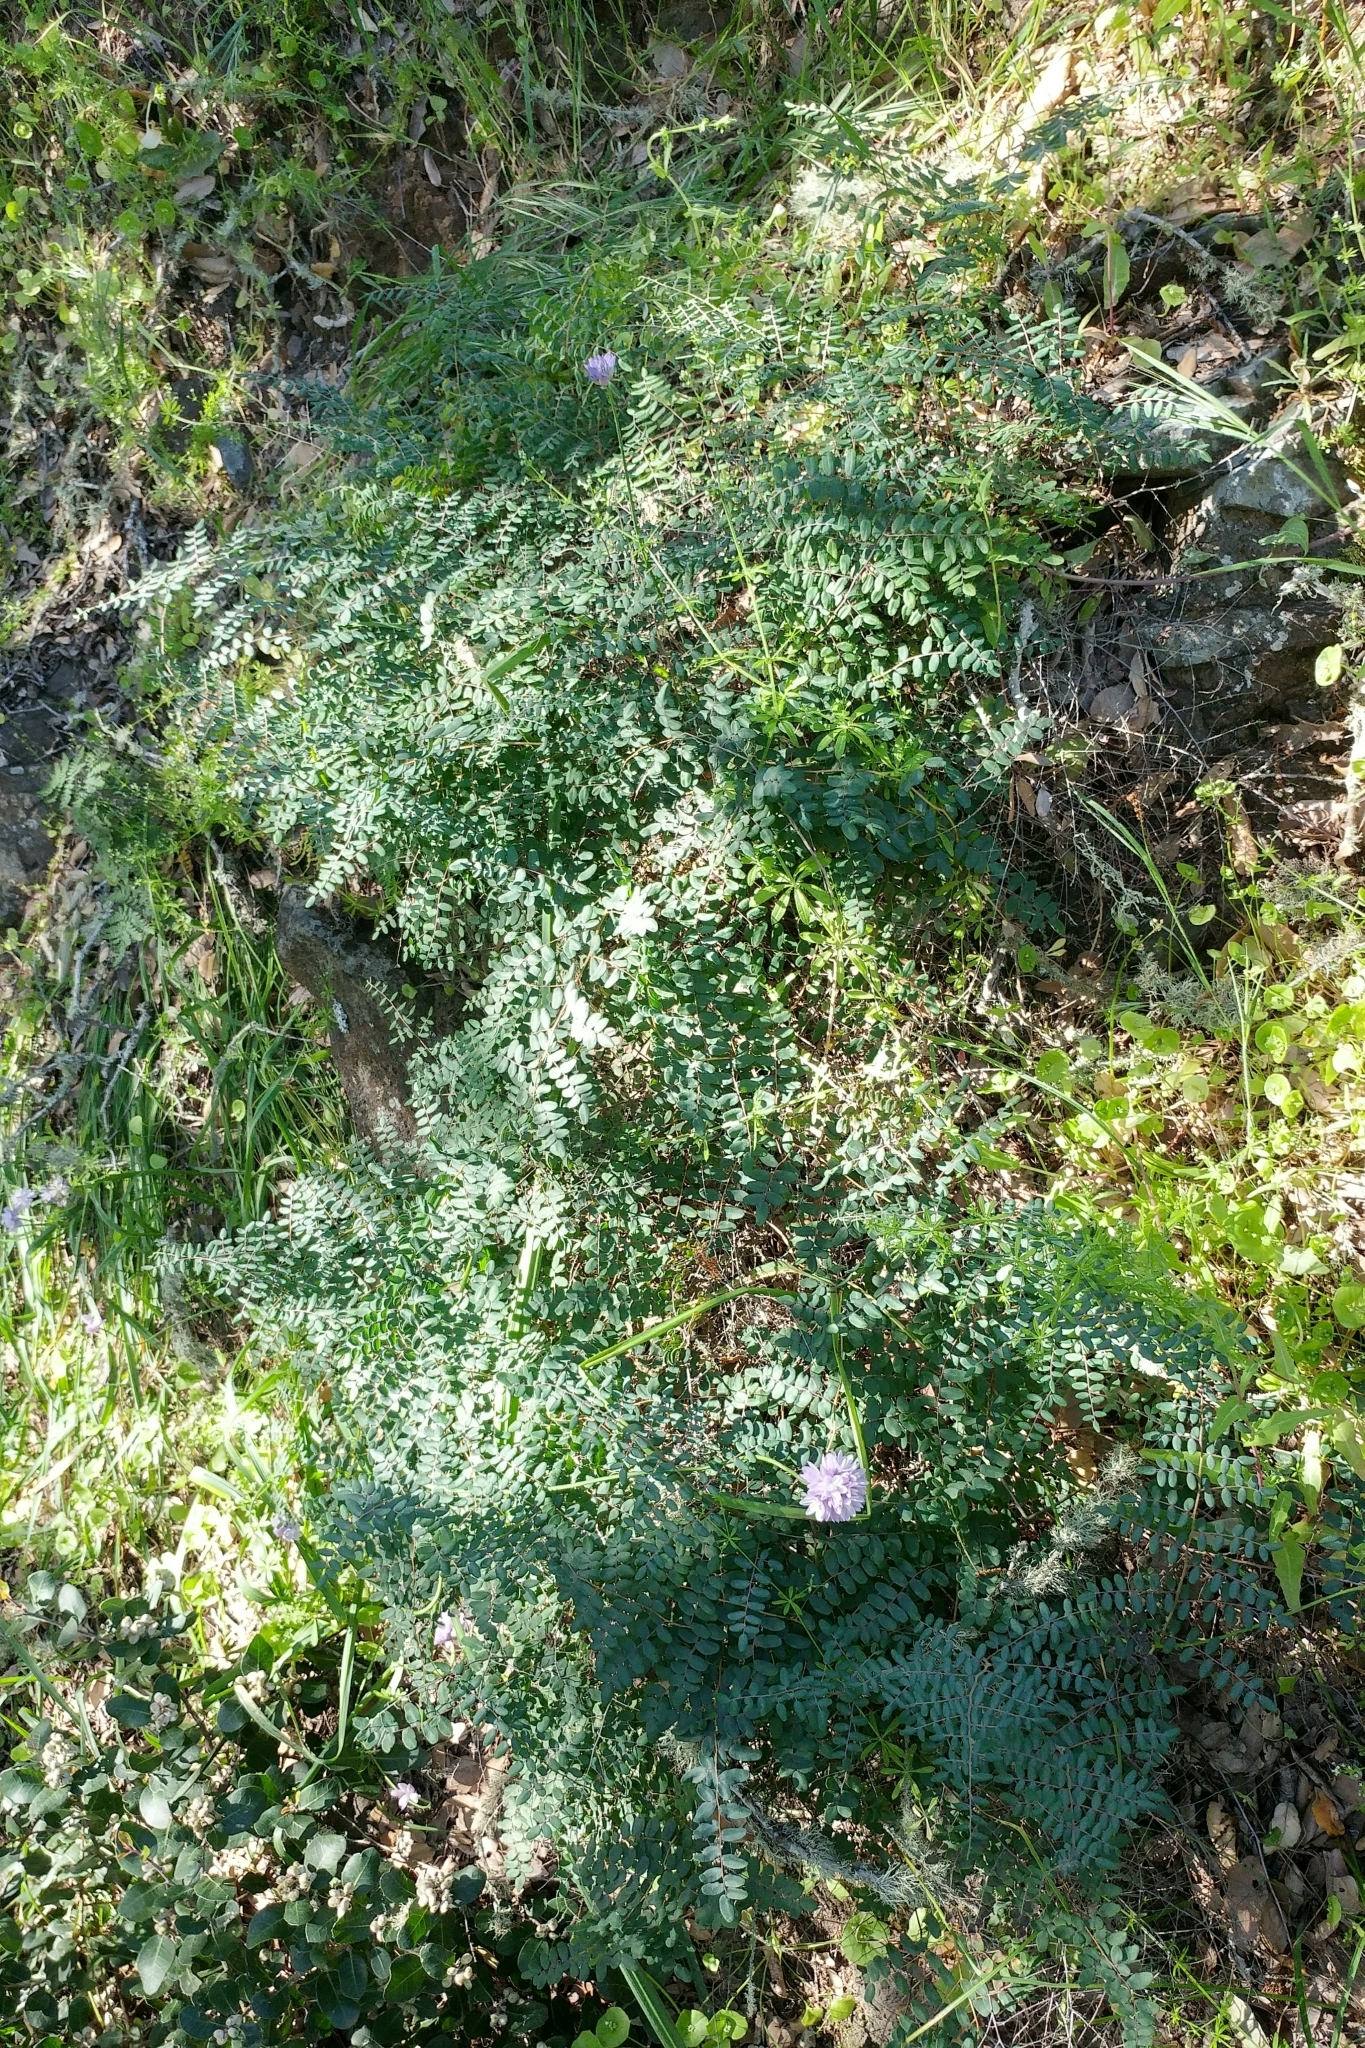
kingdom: Plantae
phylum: Tracheophyta
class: Polypodiopsida
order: Polypodiales
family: Pteridaceae
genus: Pellaea
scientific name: Pellaea andromedifolia
